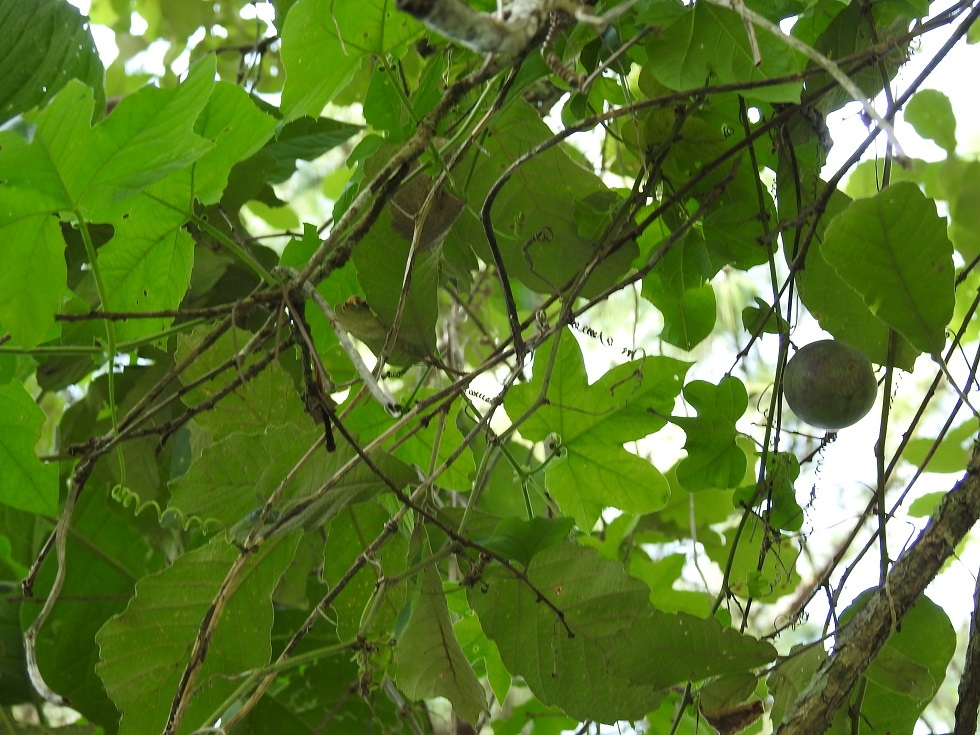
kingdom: Plantae
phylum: Tracheophyta
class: Magnoliopsida
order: Malpighiales
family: Passifloraceae
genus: Passiflora
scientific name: Passiflora adenopoda
